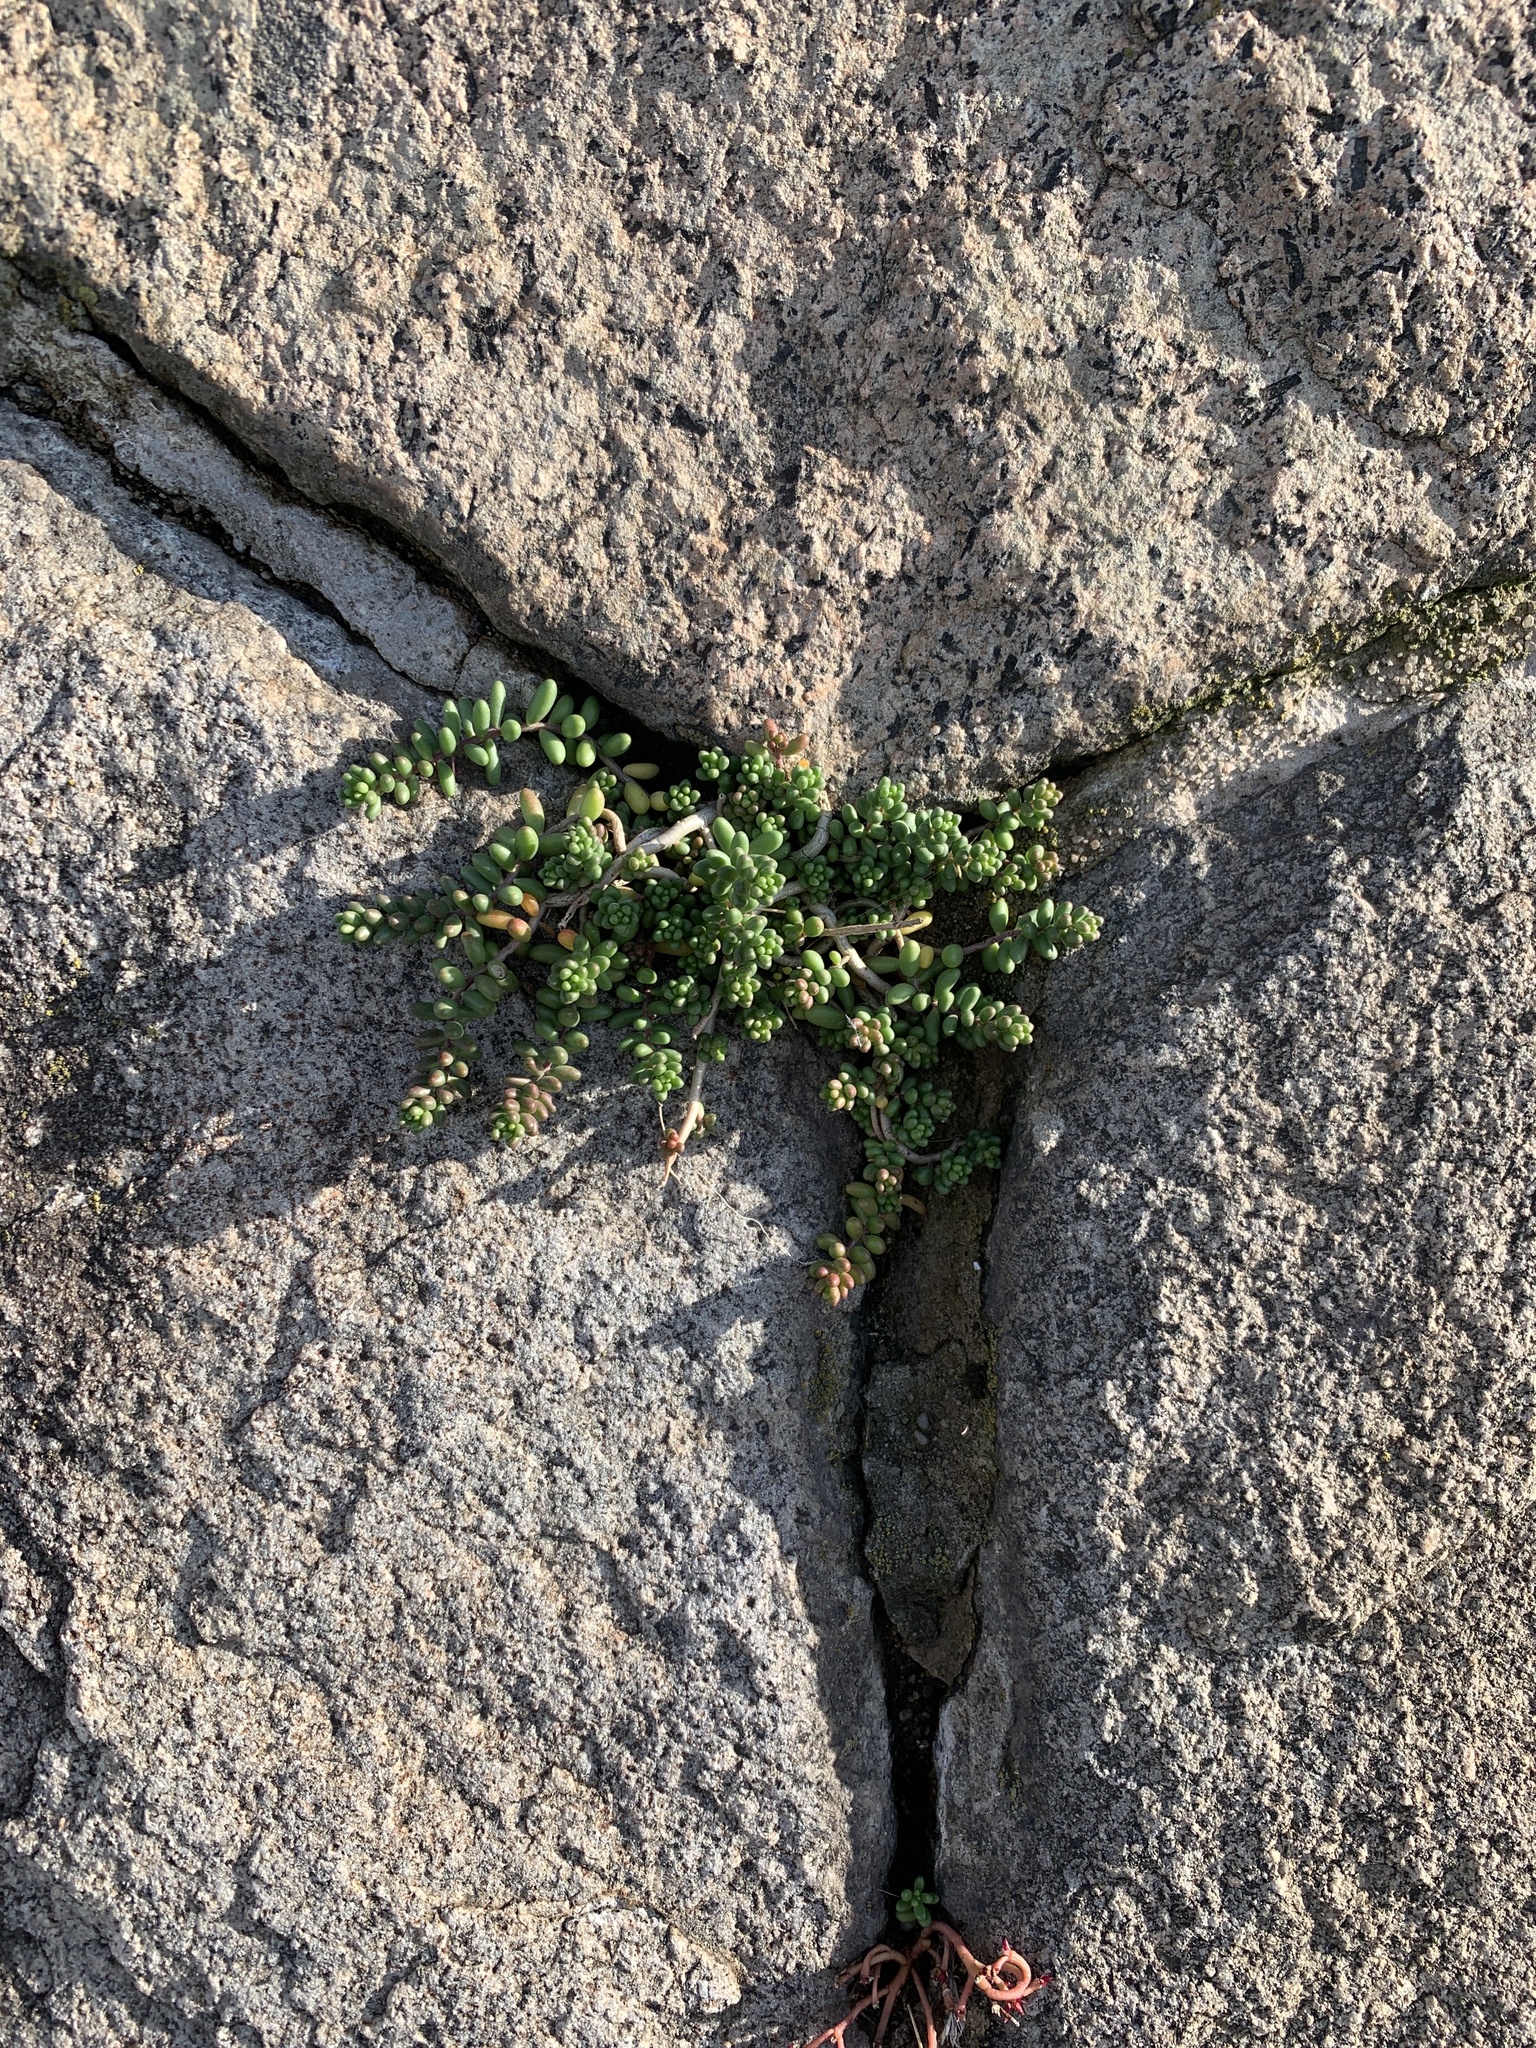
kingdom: Plantae
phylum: Tracheophyta
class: Magnoliopsida
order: Saxifragales
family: Crassulaceae
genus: Sedum
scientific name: Sedum album
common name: White stonecrop
